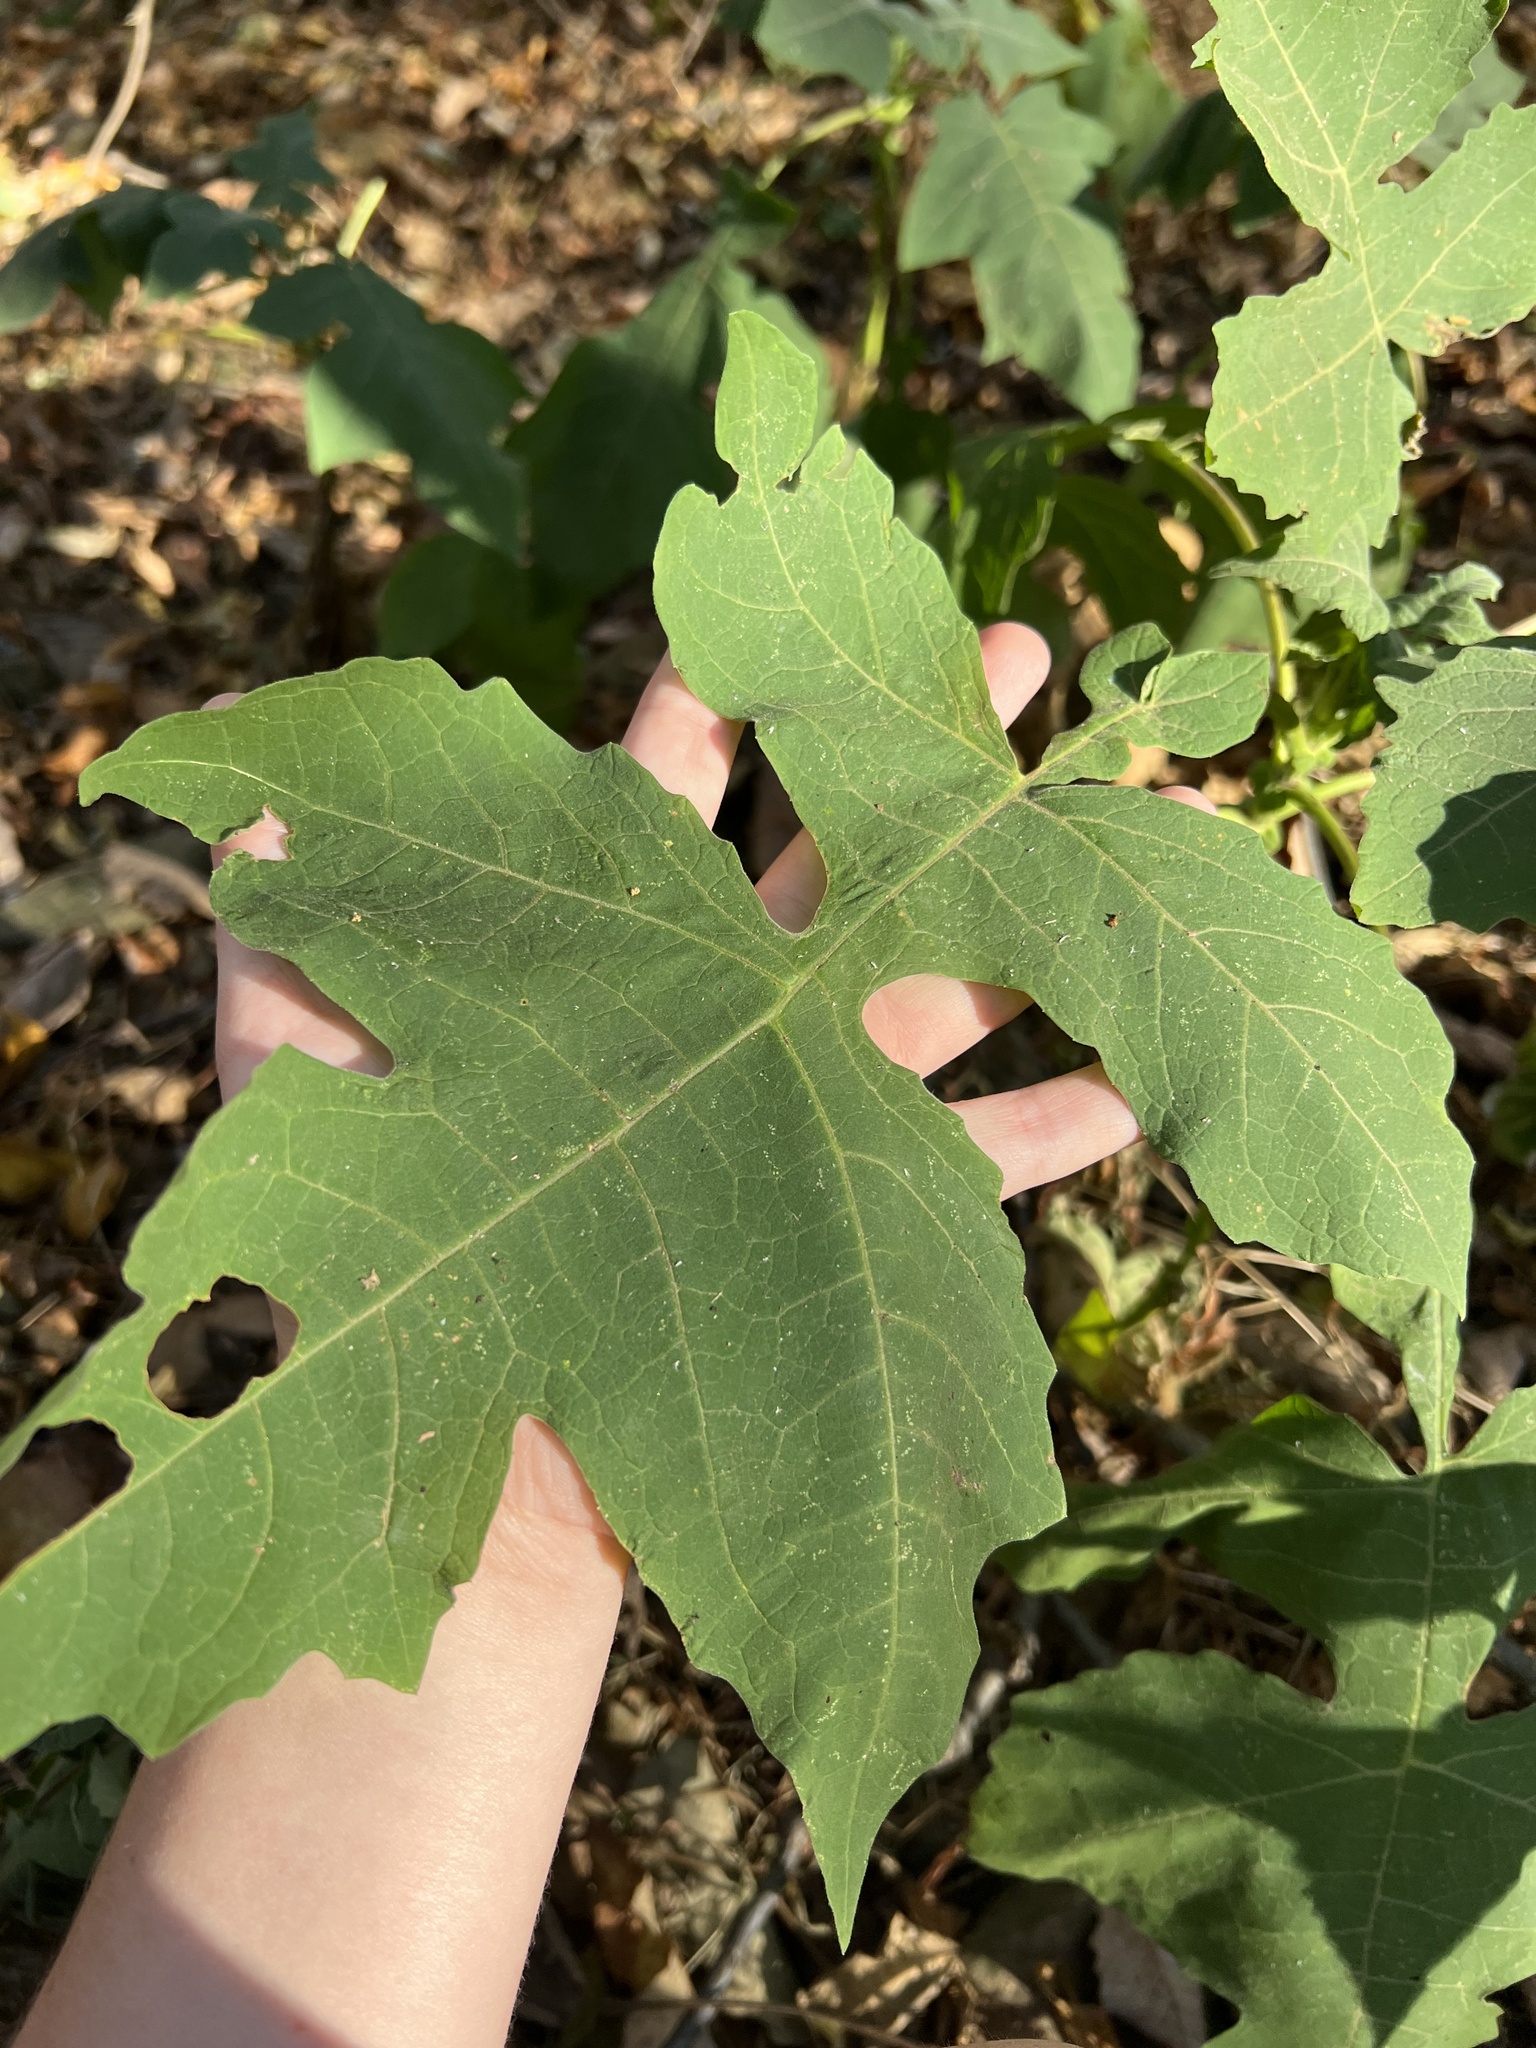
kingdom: Plantae
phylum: Tracheophyta
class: Magnoliopsida
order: Asterales
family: Asteraceae
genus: Polymnia
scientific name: Polymnia canadensis
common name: Pale-flowered leafcup
